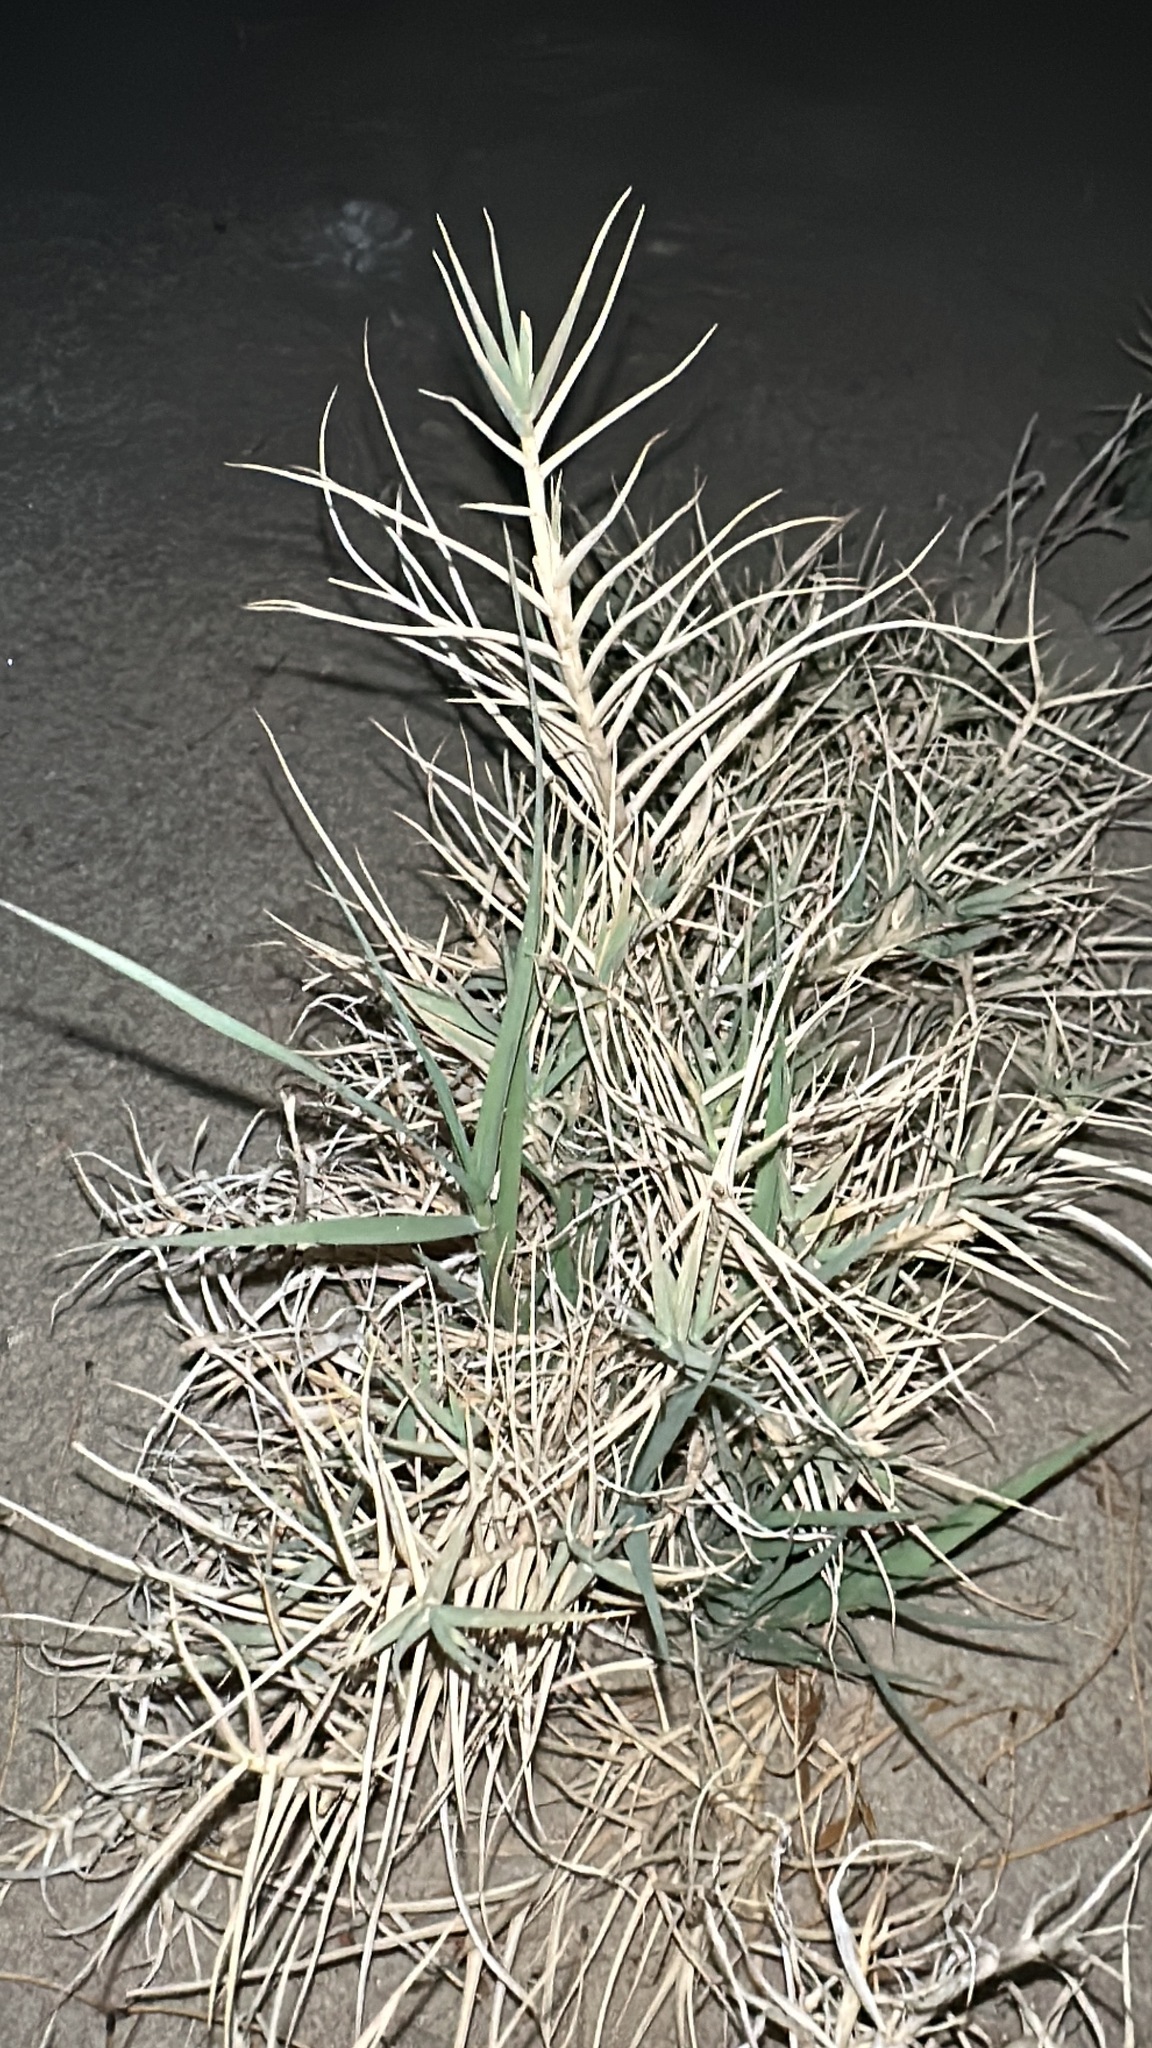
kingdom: Plantae
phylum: Tracheophyta
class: Liliopsida
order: Poales
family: Poaceae
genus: Distichlis
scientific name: Distichlis spicata
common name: Saltgrass
